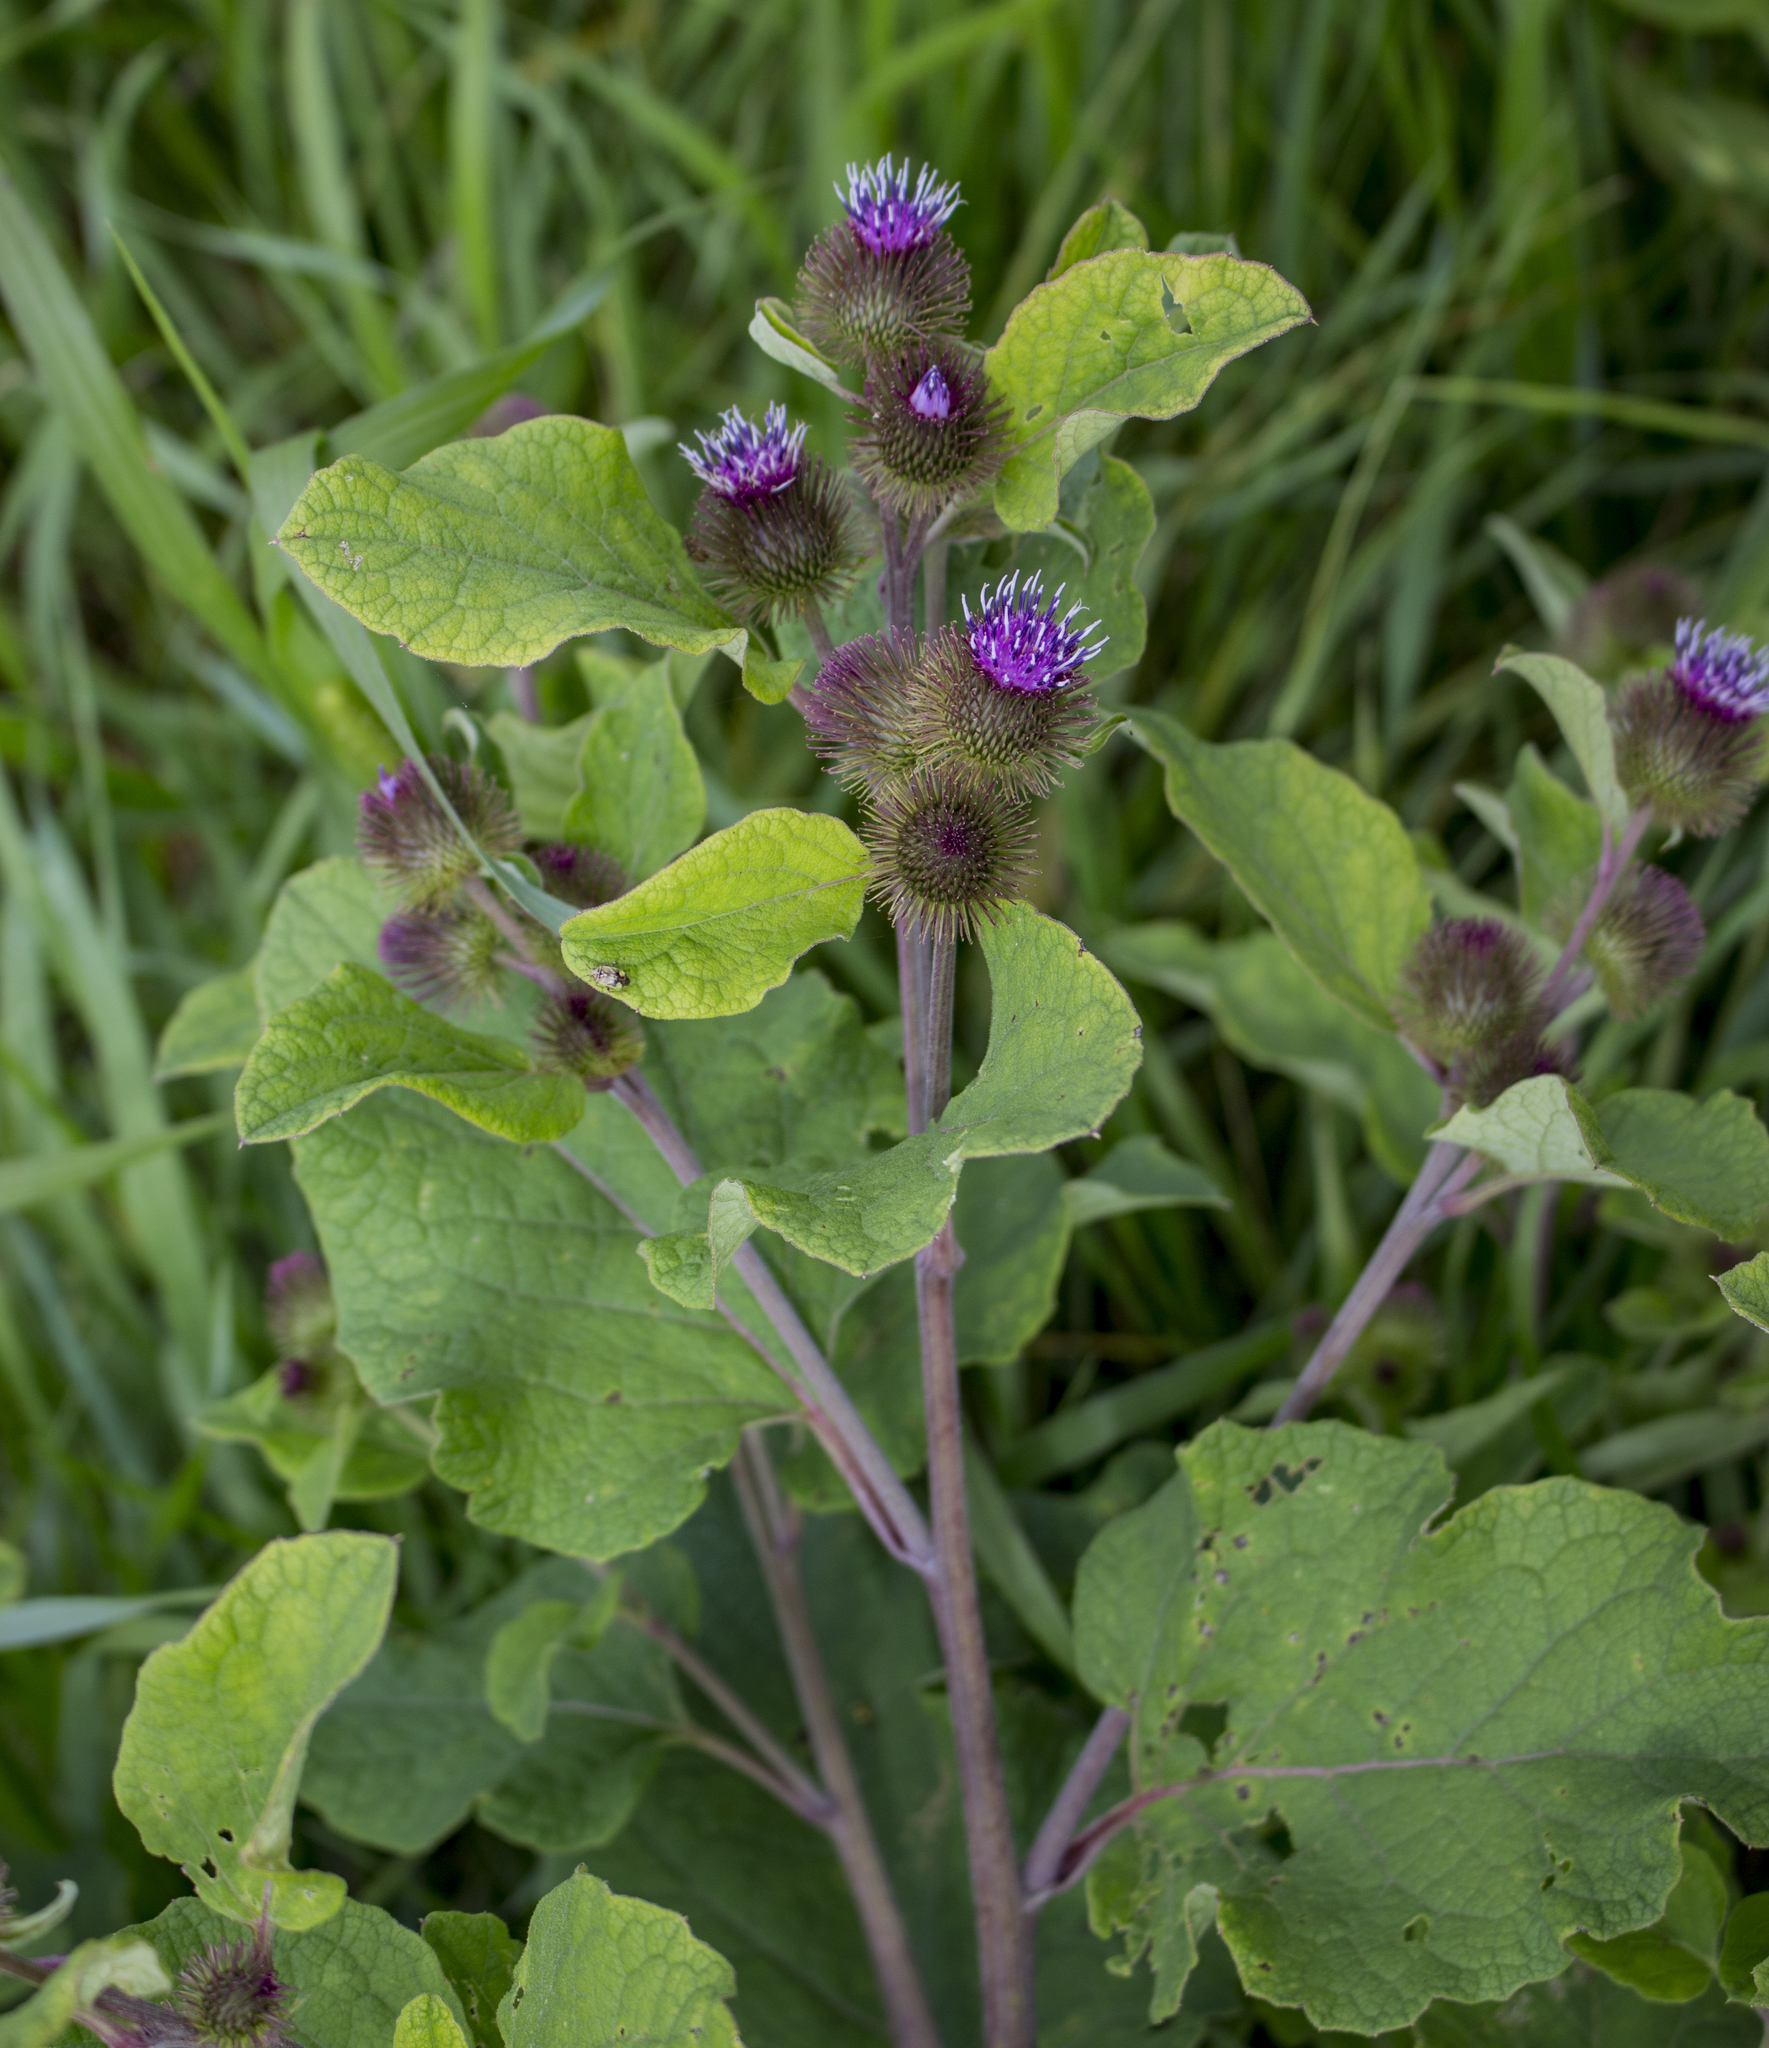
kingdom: Plantae
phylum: Tracheophyta
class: Magnoliopsida
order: Asterales
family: Asteraceae
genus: Arctium
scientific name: Arctium minus
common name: Lesser burdock
